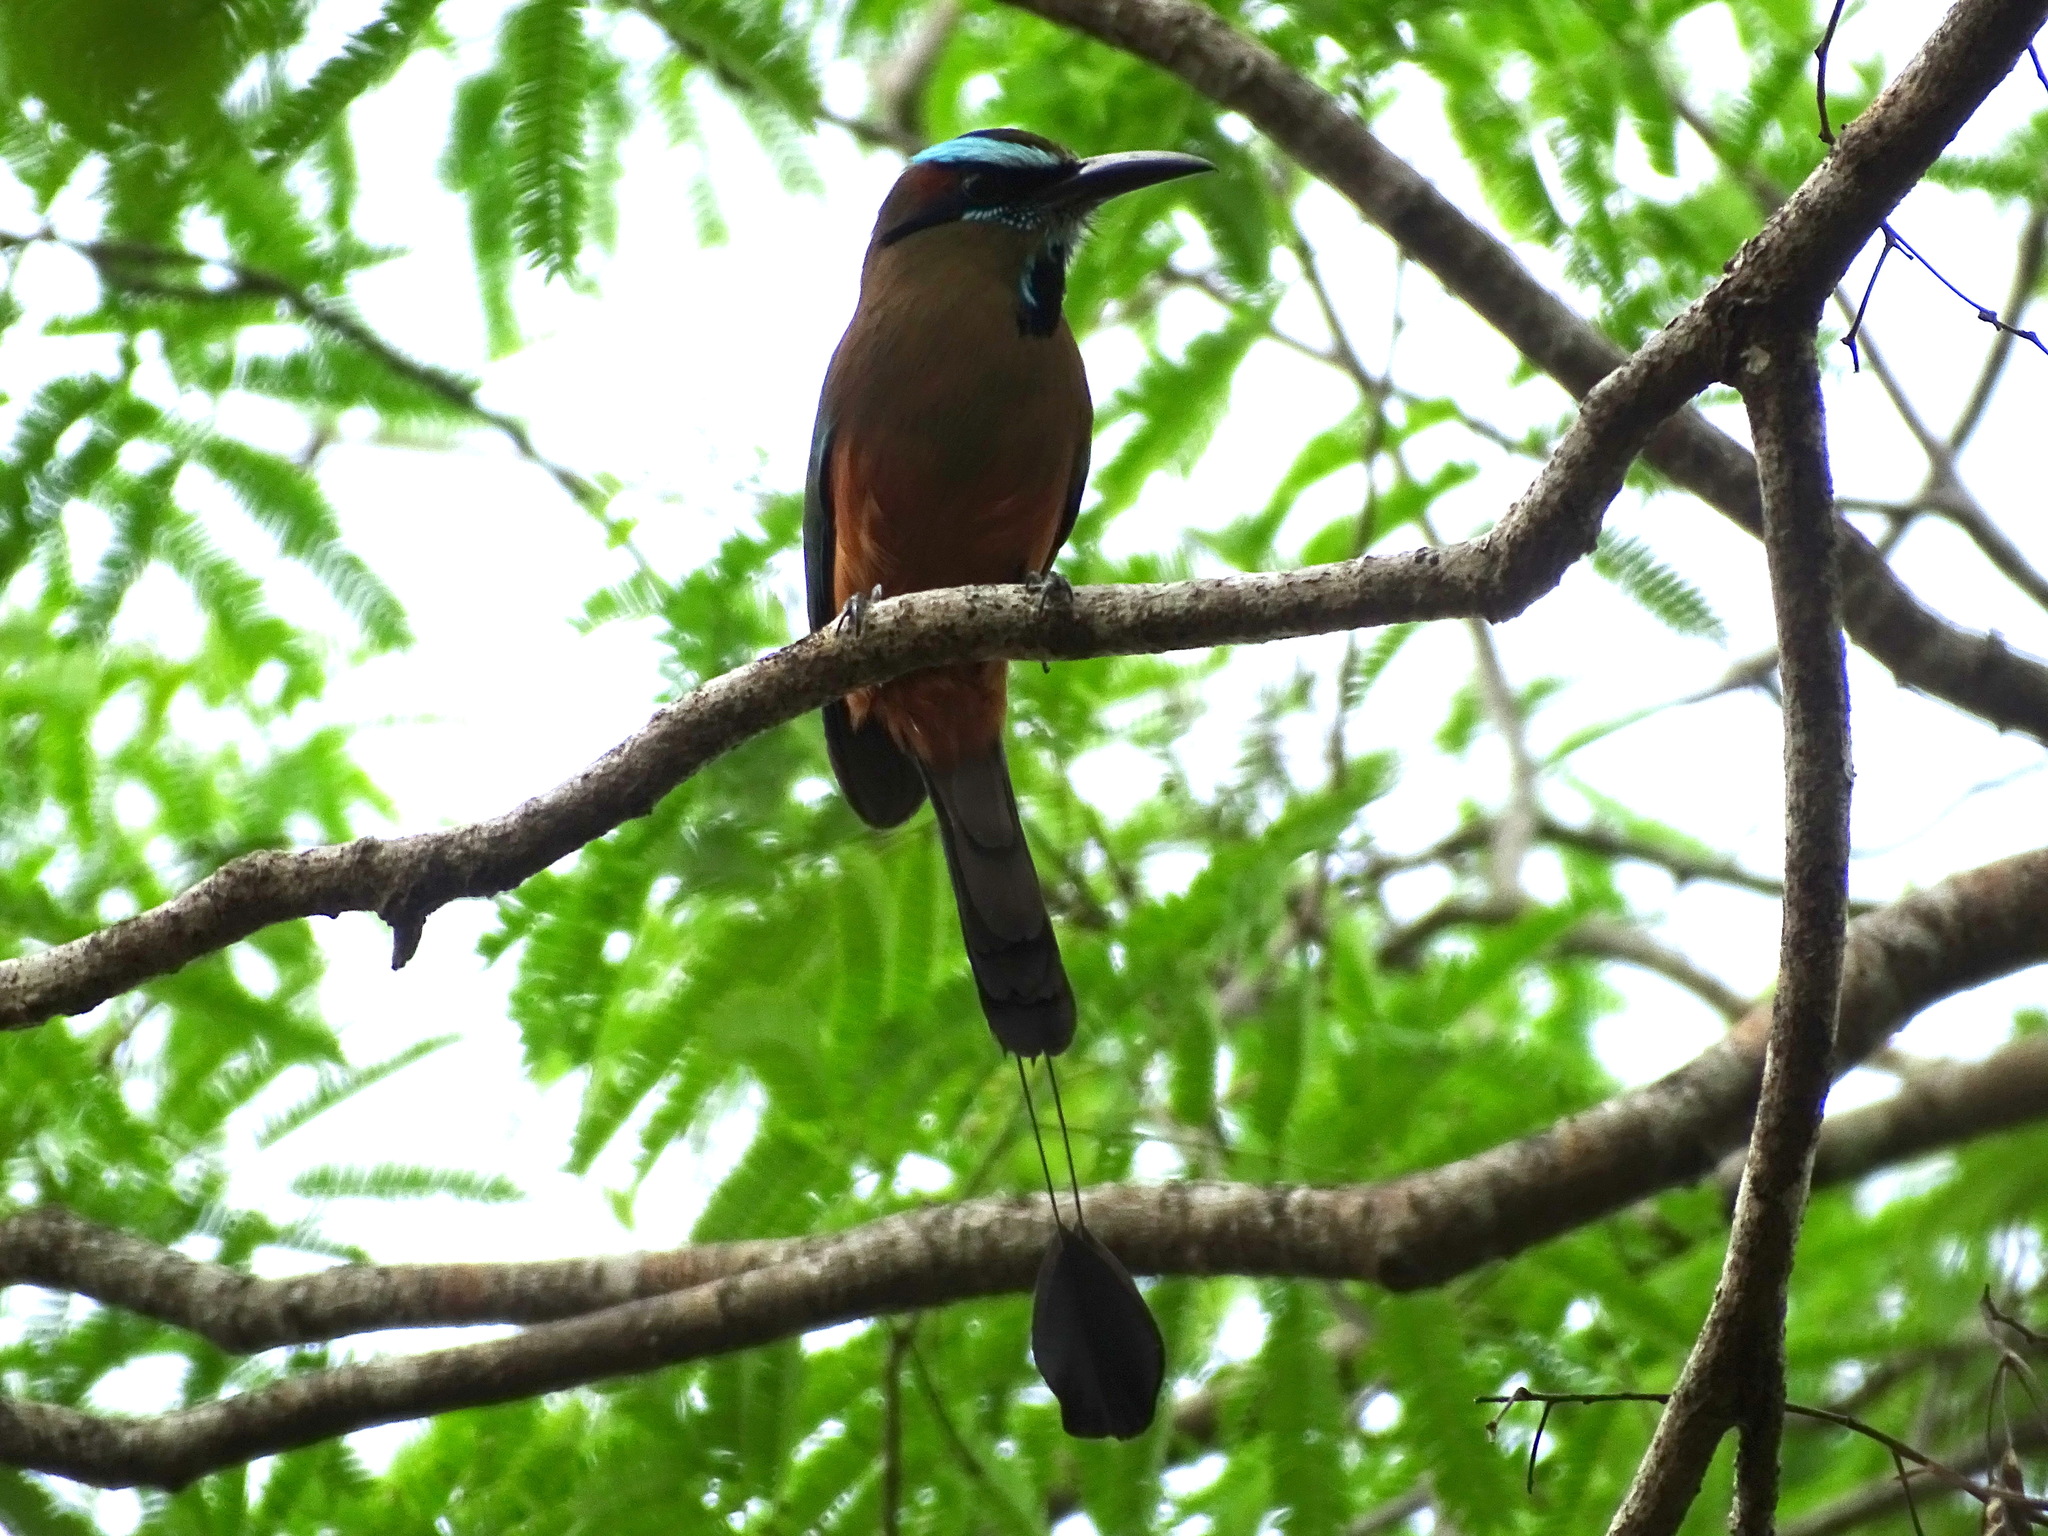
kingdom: Animalia
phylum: Chordata
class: Aves
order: Coraciiformes
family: Momotidae
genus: Eumomota
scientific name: Eumomota superciliosa
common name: Turquoise-browed motmot
